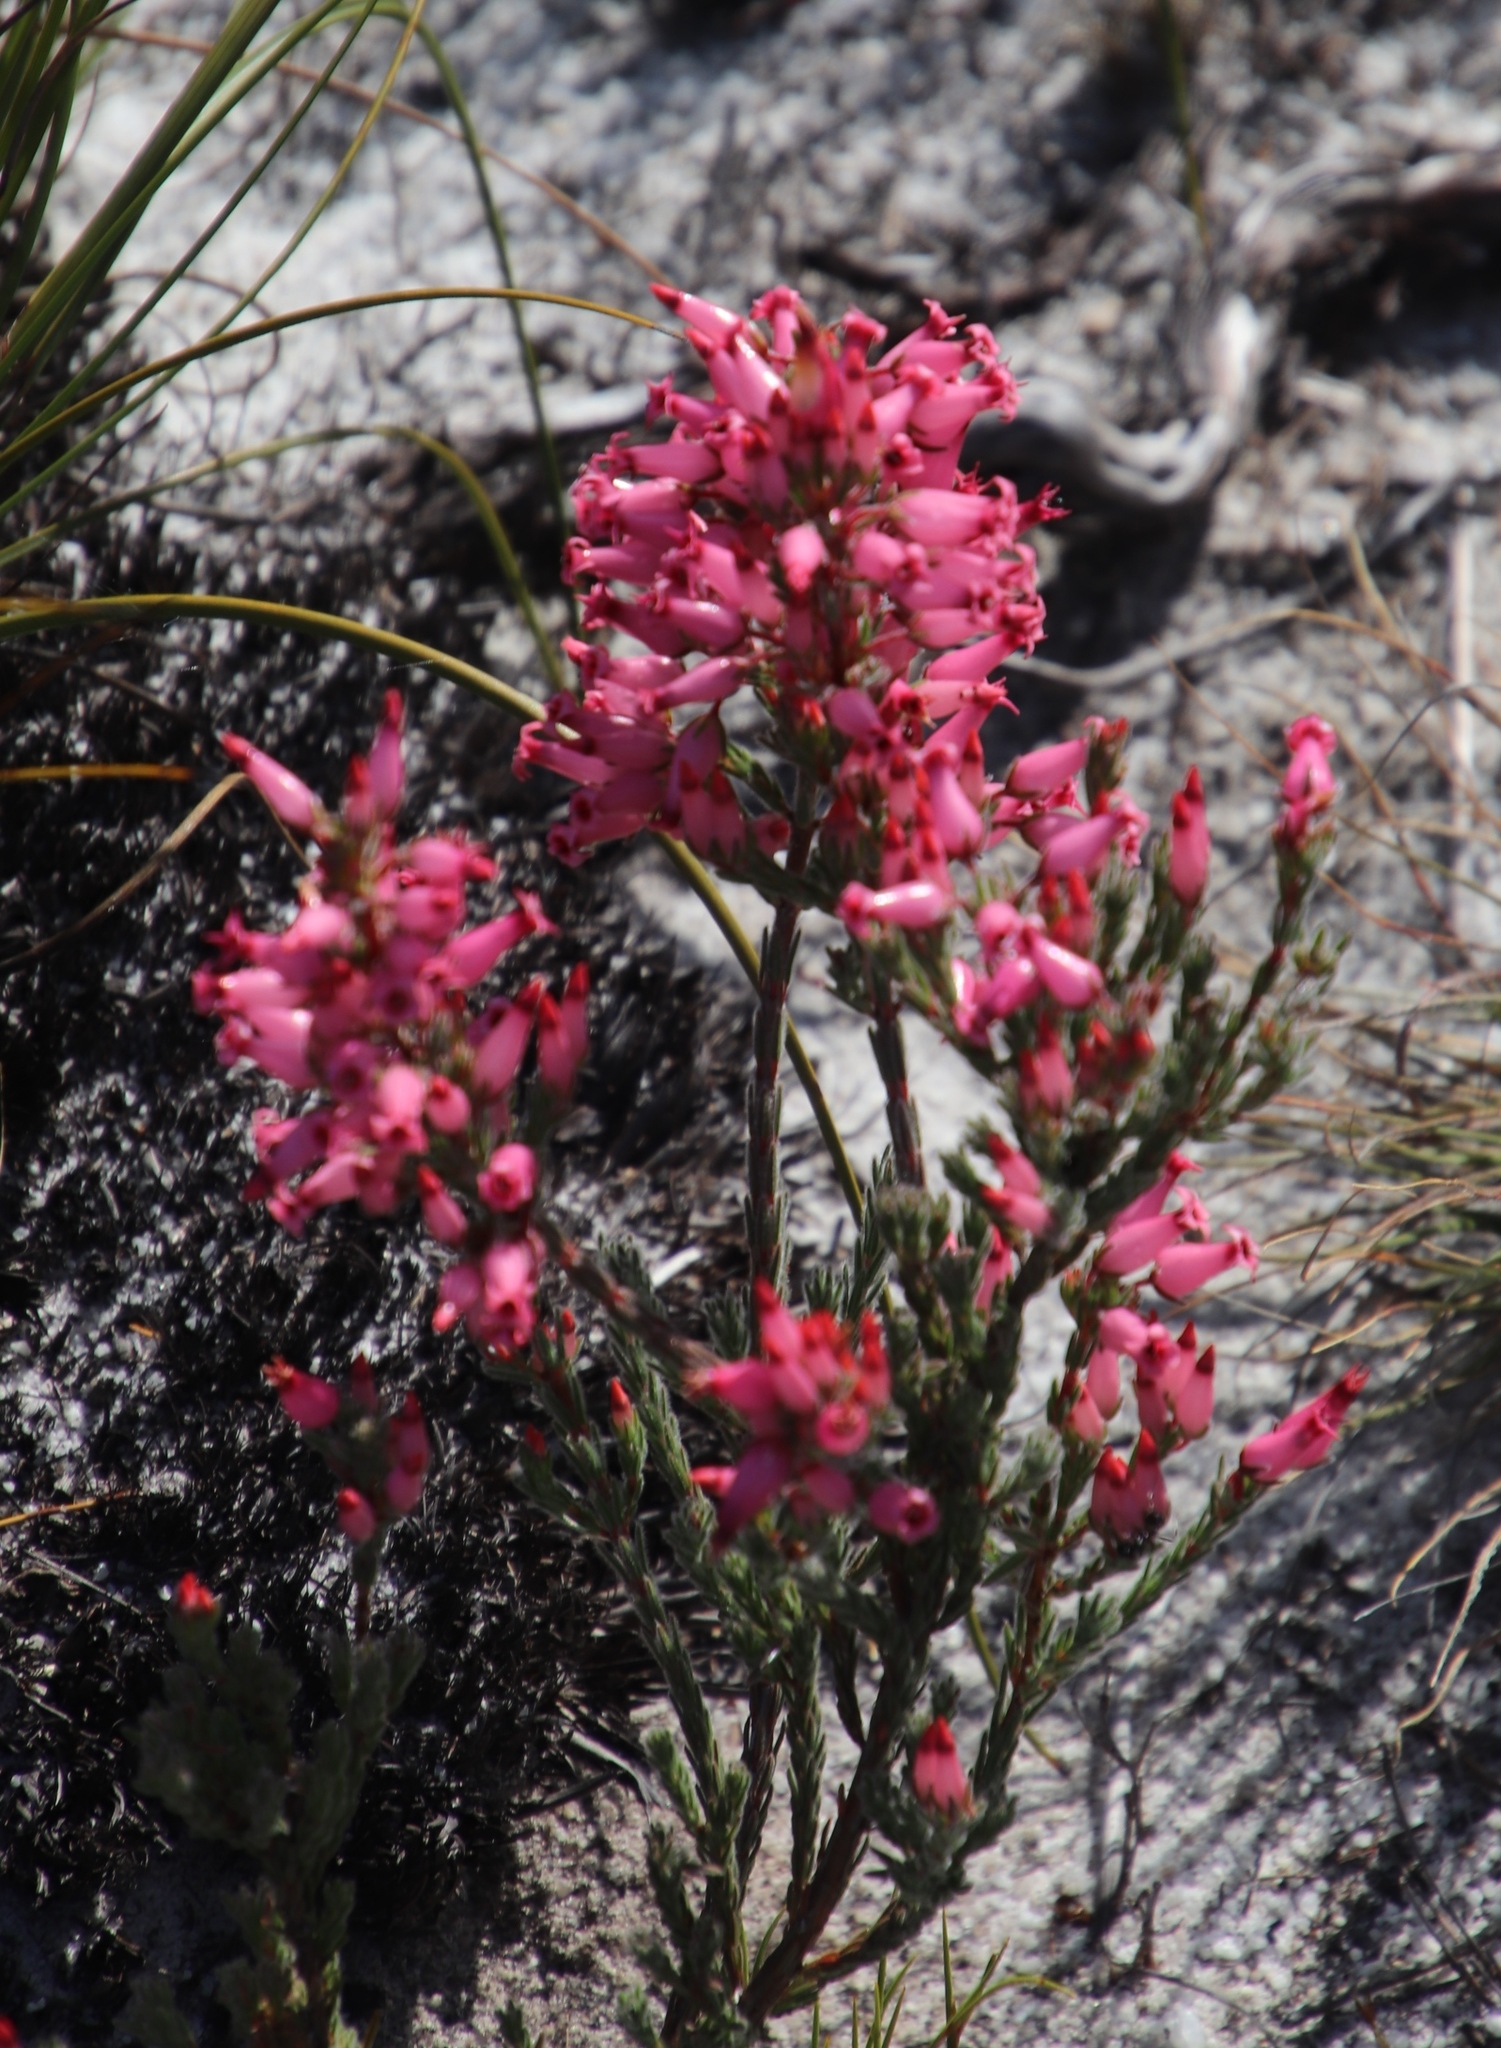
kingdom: Plantae
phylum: Tracheophyta
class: Magnoliopsida
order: Ericales
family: Ericaceae
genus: Erica
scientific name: Erica
